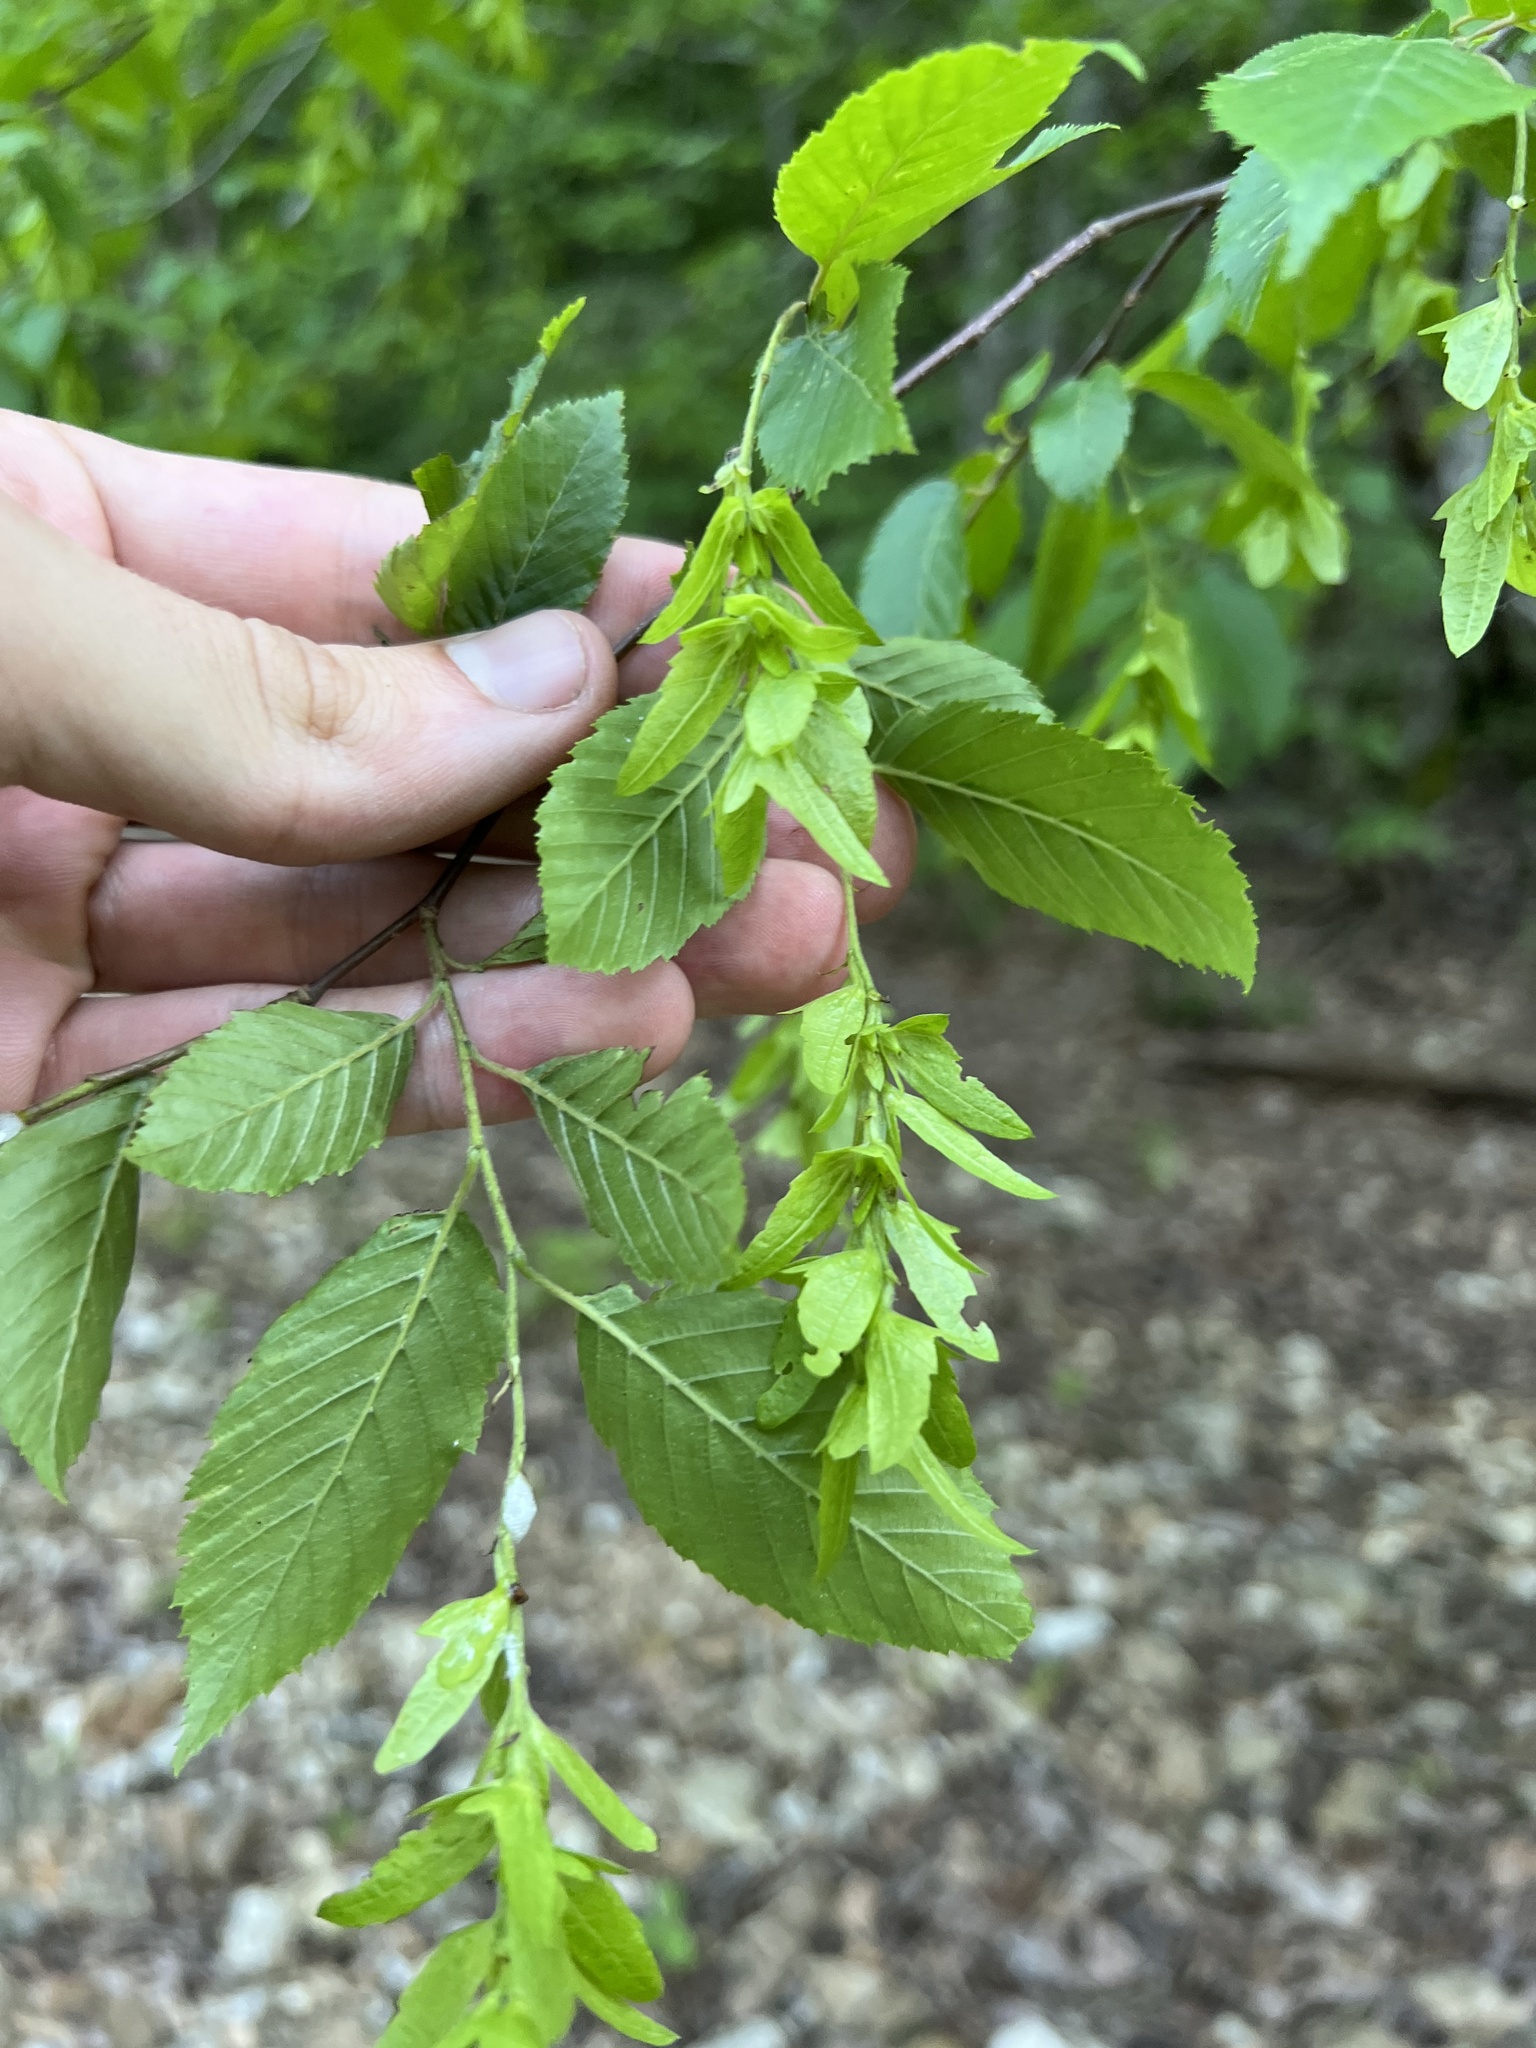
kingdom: Plantae
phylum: Tracheophyta
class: Magnoliopsida
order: Fagales
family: Betulaceae
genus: Carpinus
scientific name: Carpinus caroliniana
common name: American hornbeam
